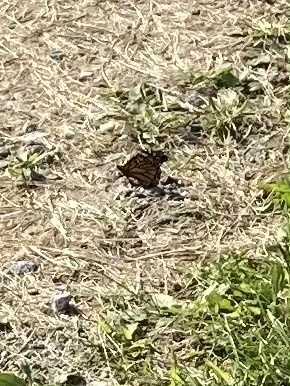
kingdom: Animalia
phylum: Arthropoda
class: Insecta
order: Lepidoptera
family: Nymphalidae
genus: Danaus
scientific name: Danaus plexippus
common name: Monarch
